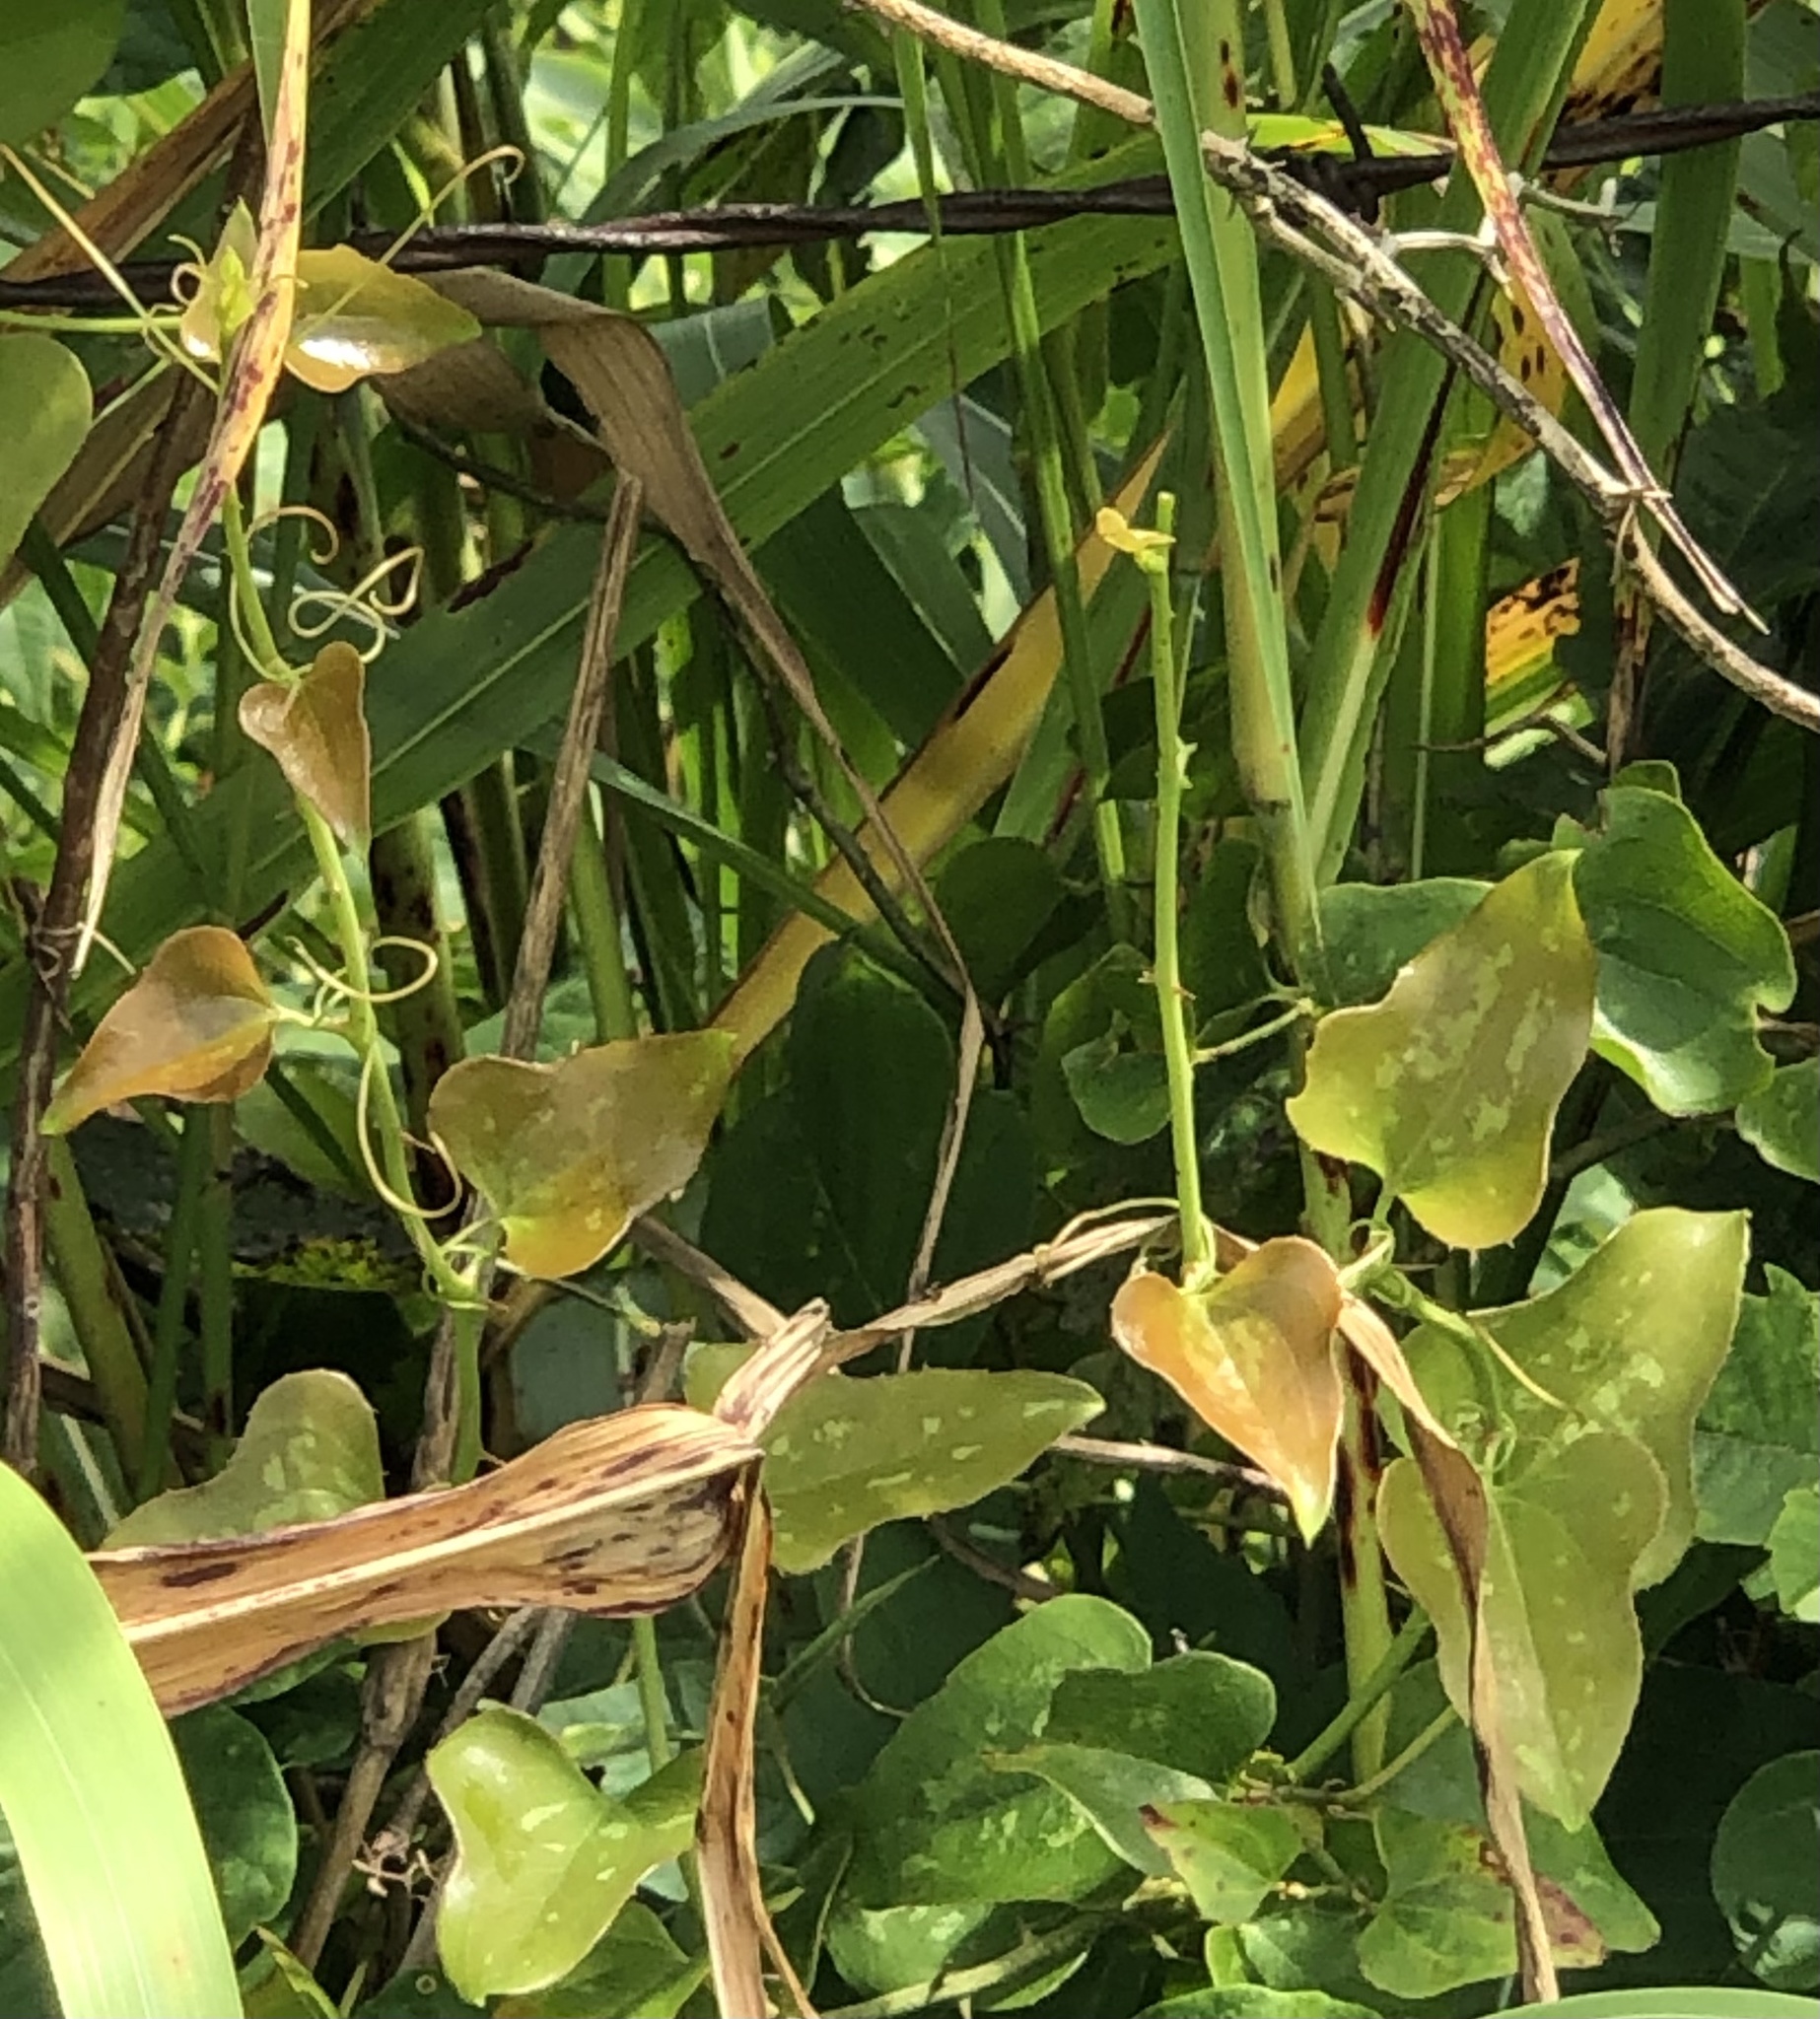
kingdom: Plantae
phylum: Tracheophyta
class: Liliopsida
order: Liliales
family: Smilacaceae
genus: Smilax
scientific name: Smilax bona-nox
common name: Catbrier
